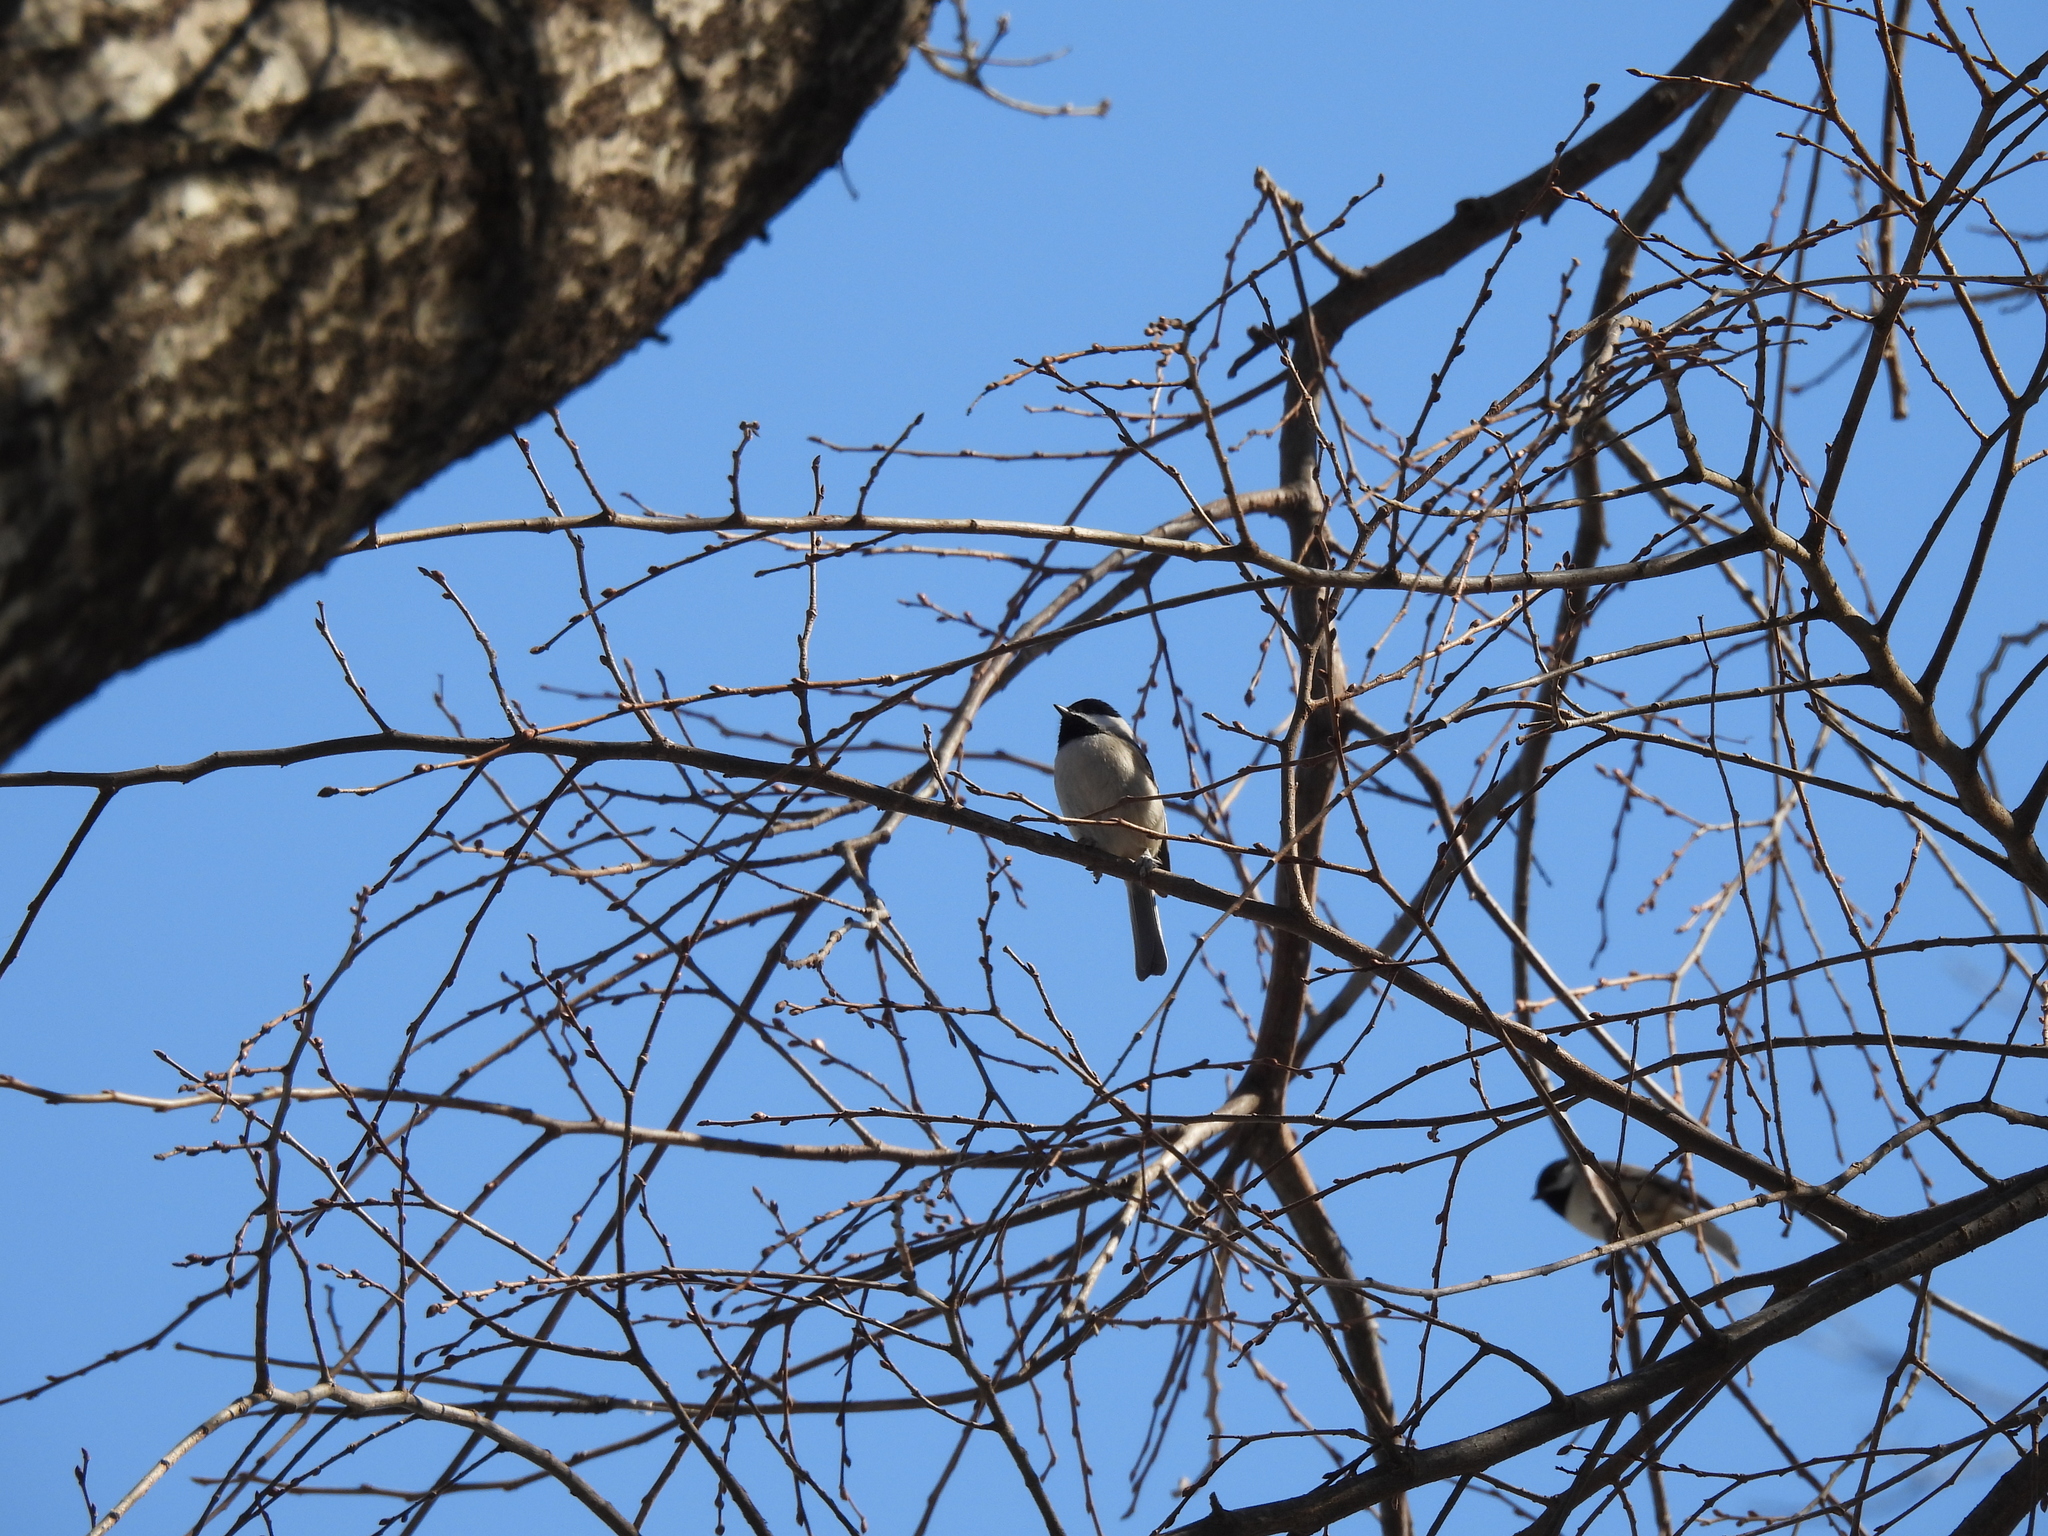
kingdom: Animalia
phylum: Chordata
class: Aves
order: Passeriformes
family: Paridae
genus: Poecile
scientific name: Poecile carolinensis
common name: Carolina chickadee
